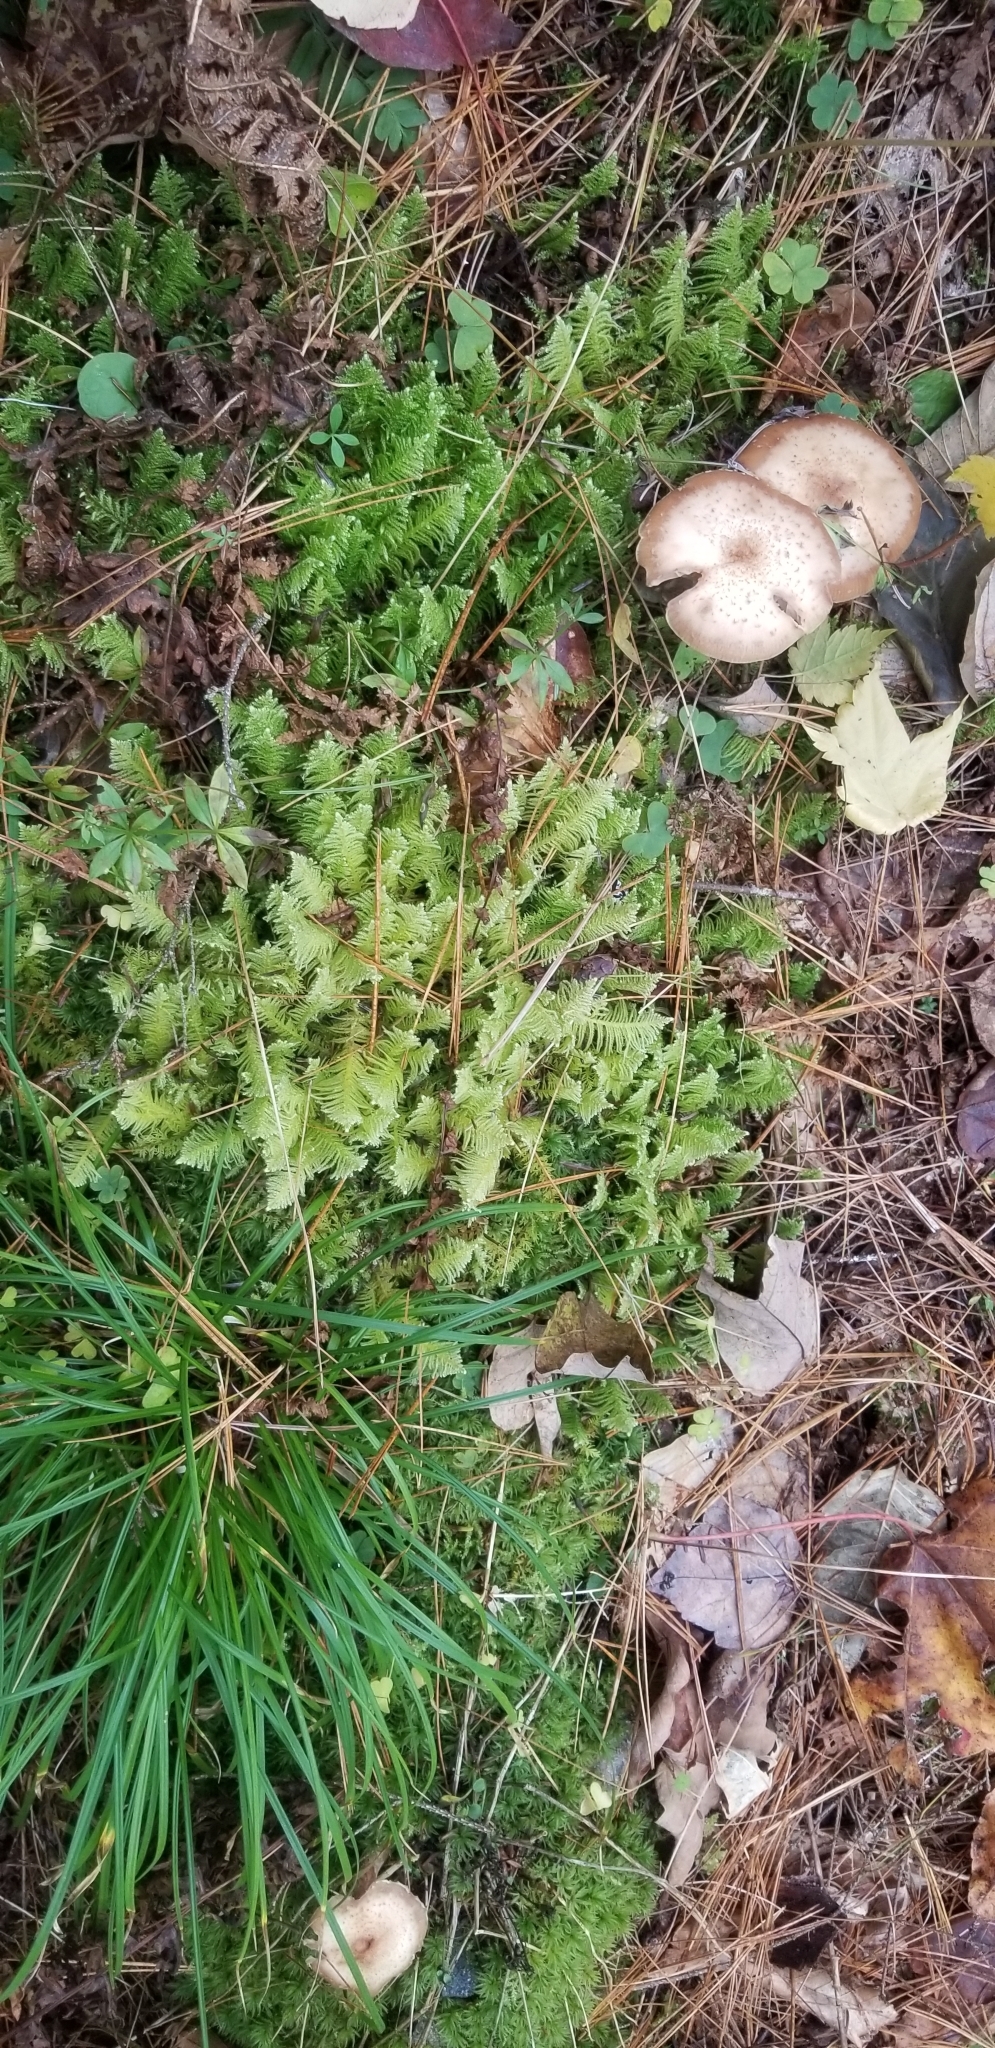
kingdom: Plantae
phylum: Bryophyta
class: Bryopsida
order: Hypnales
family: Hylocomiaceae
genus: Hylocomium
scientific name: Hylocomium splendens
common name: Stairstep moss
